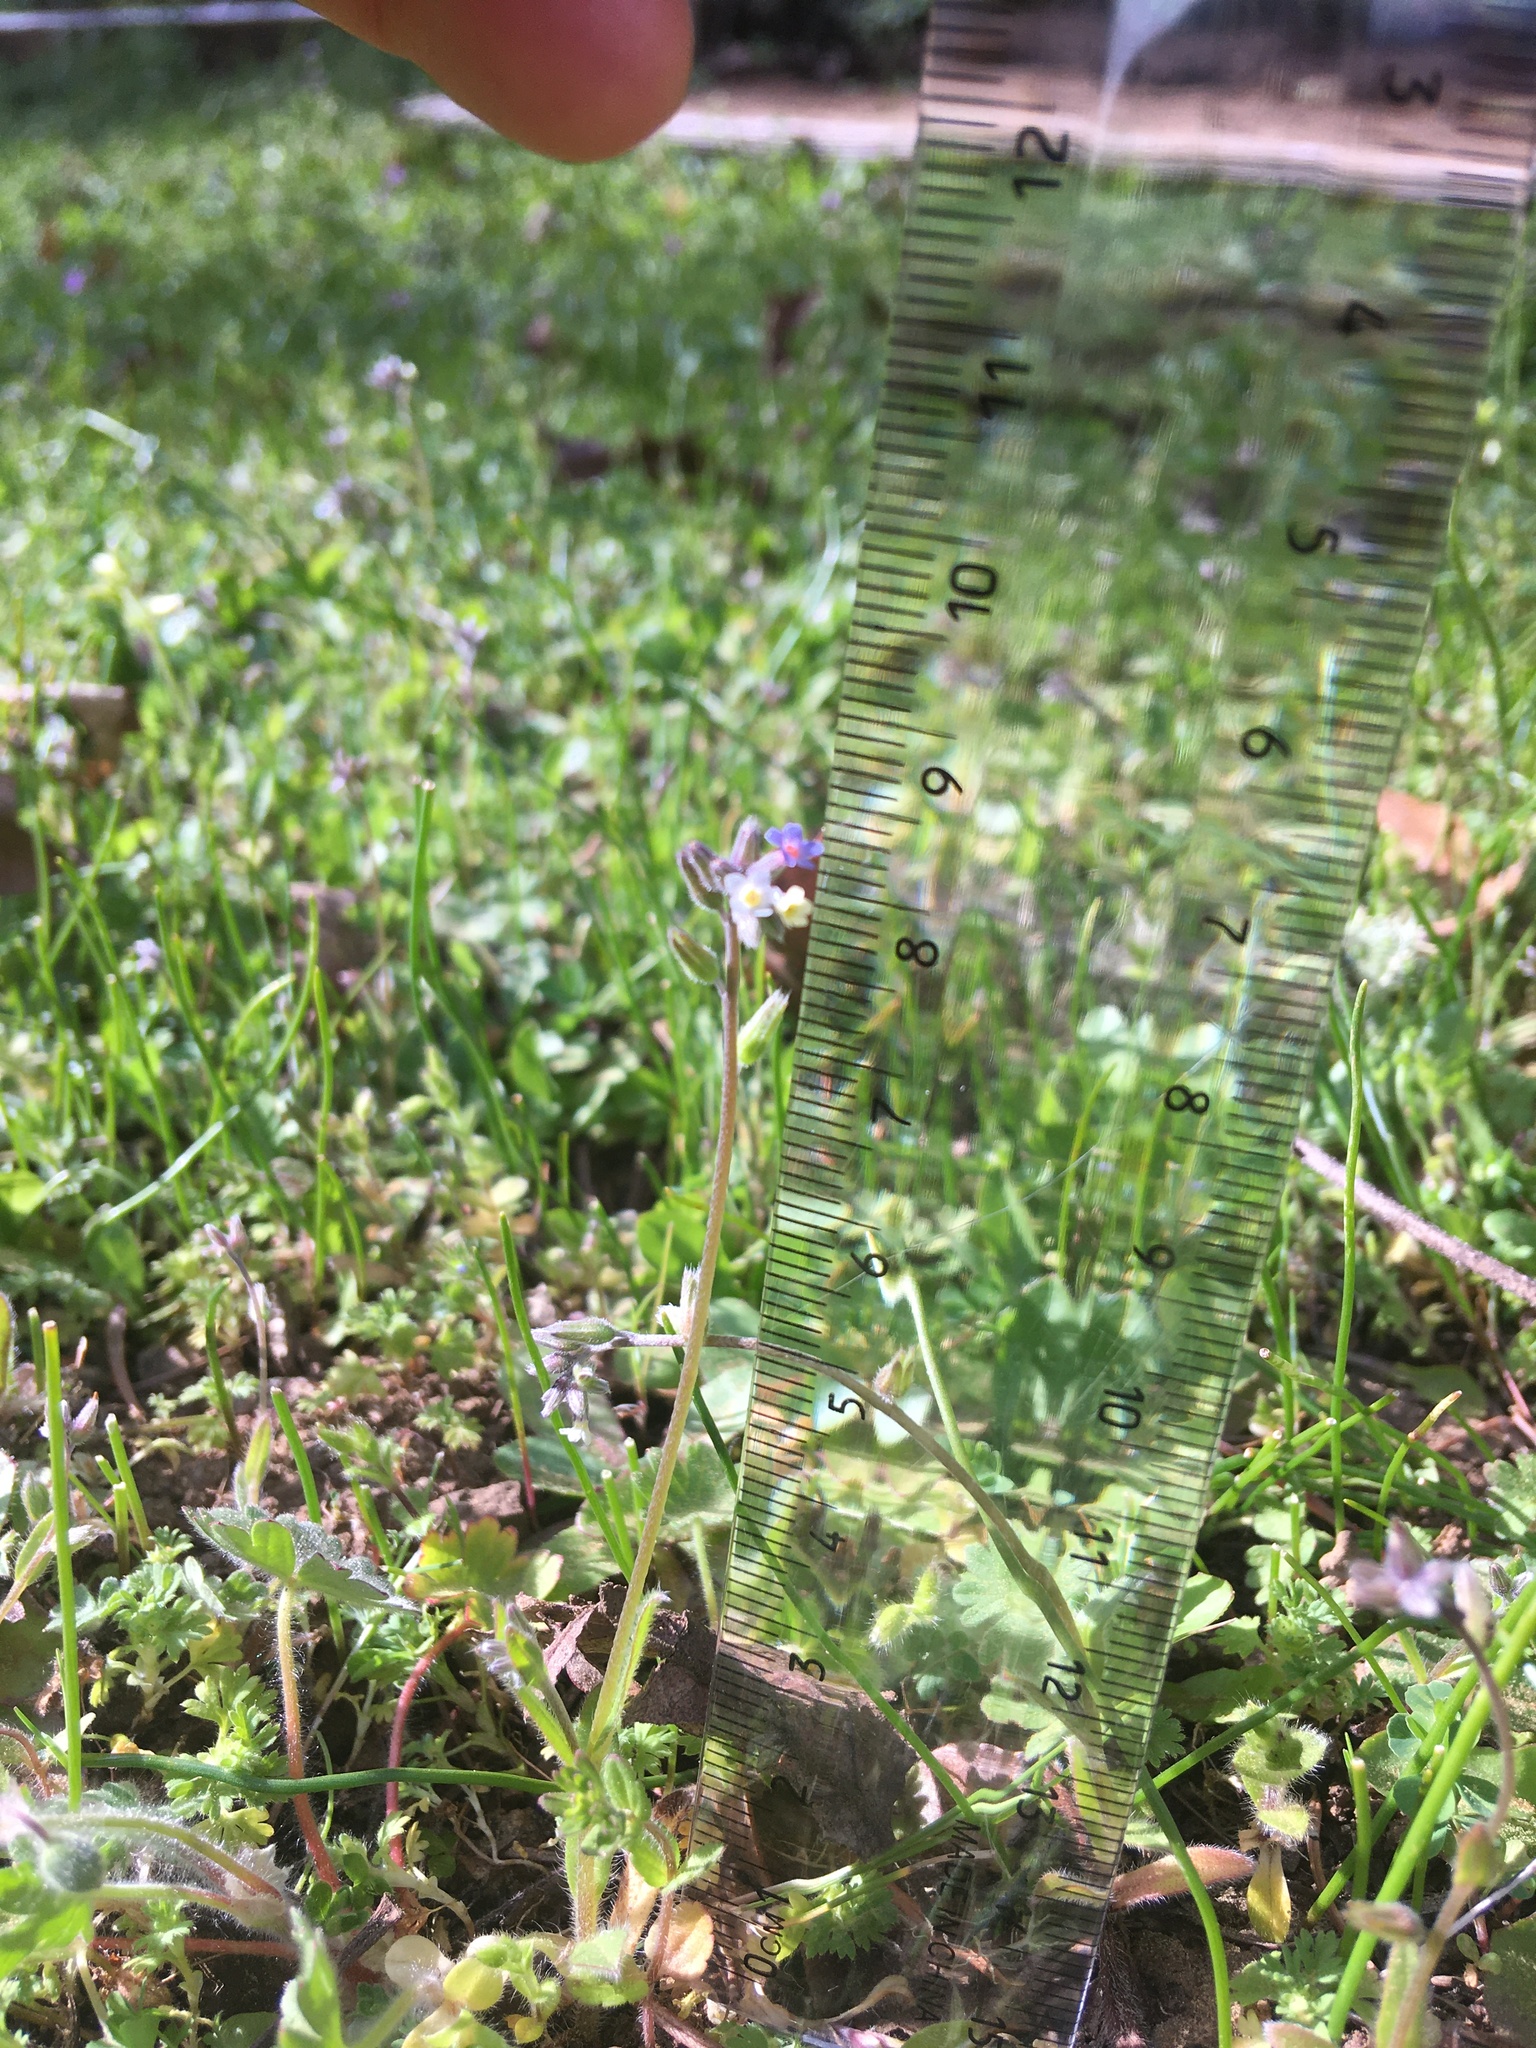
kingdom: Plantae
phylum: Tracheophyta
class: Magnoliopsida
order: Boraginales
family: Boraginaceae
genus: Myosotis
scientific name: Myosotis discolor
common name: Changing forget-me-not
